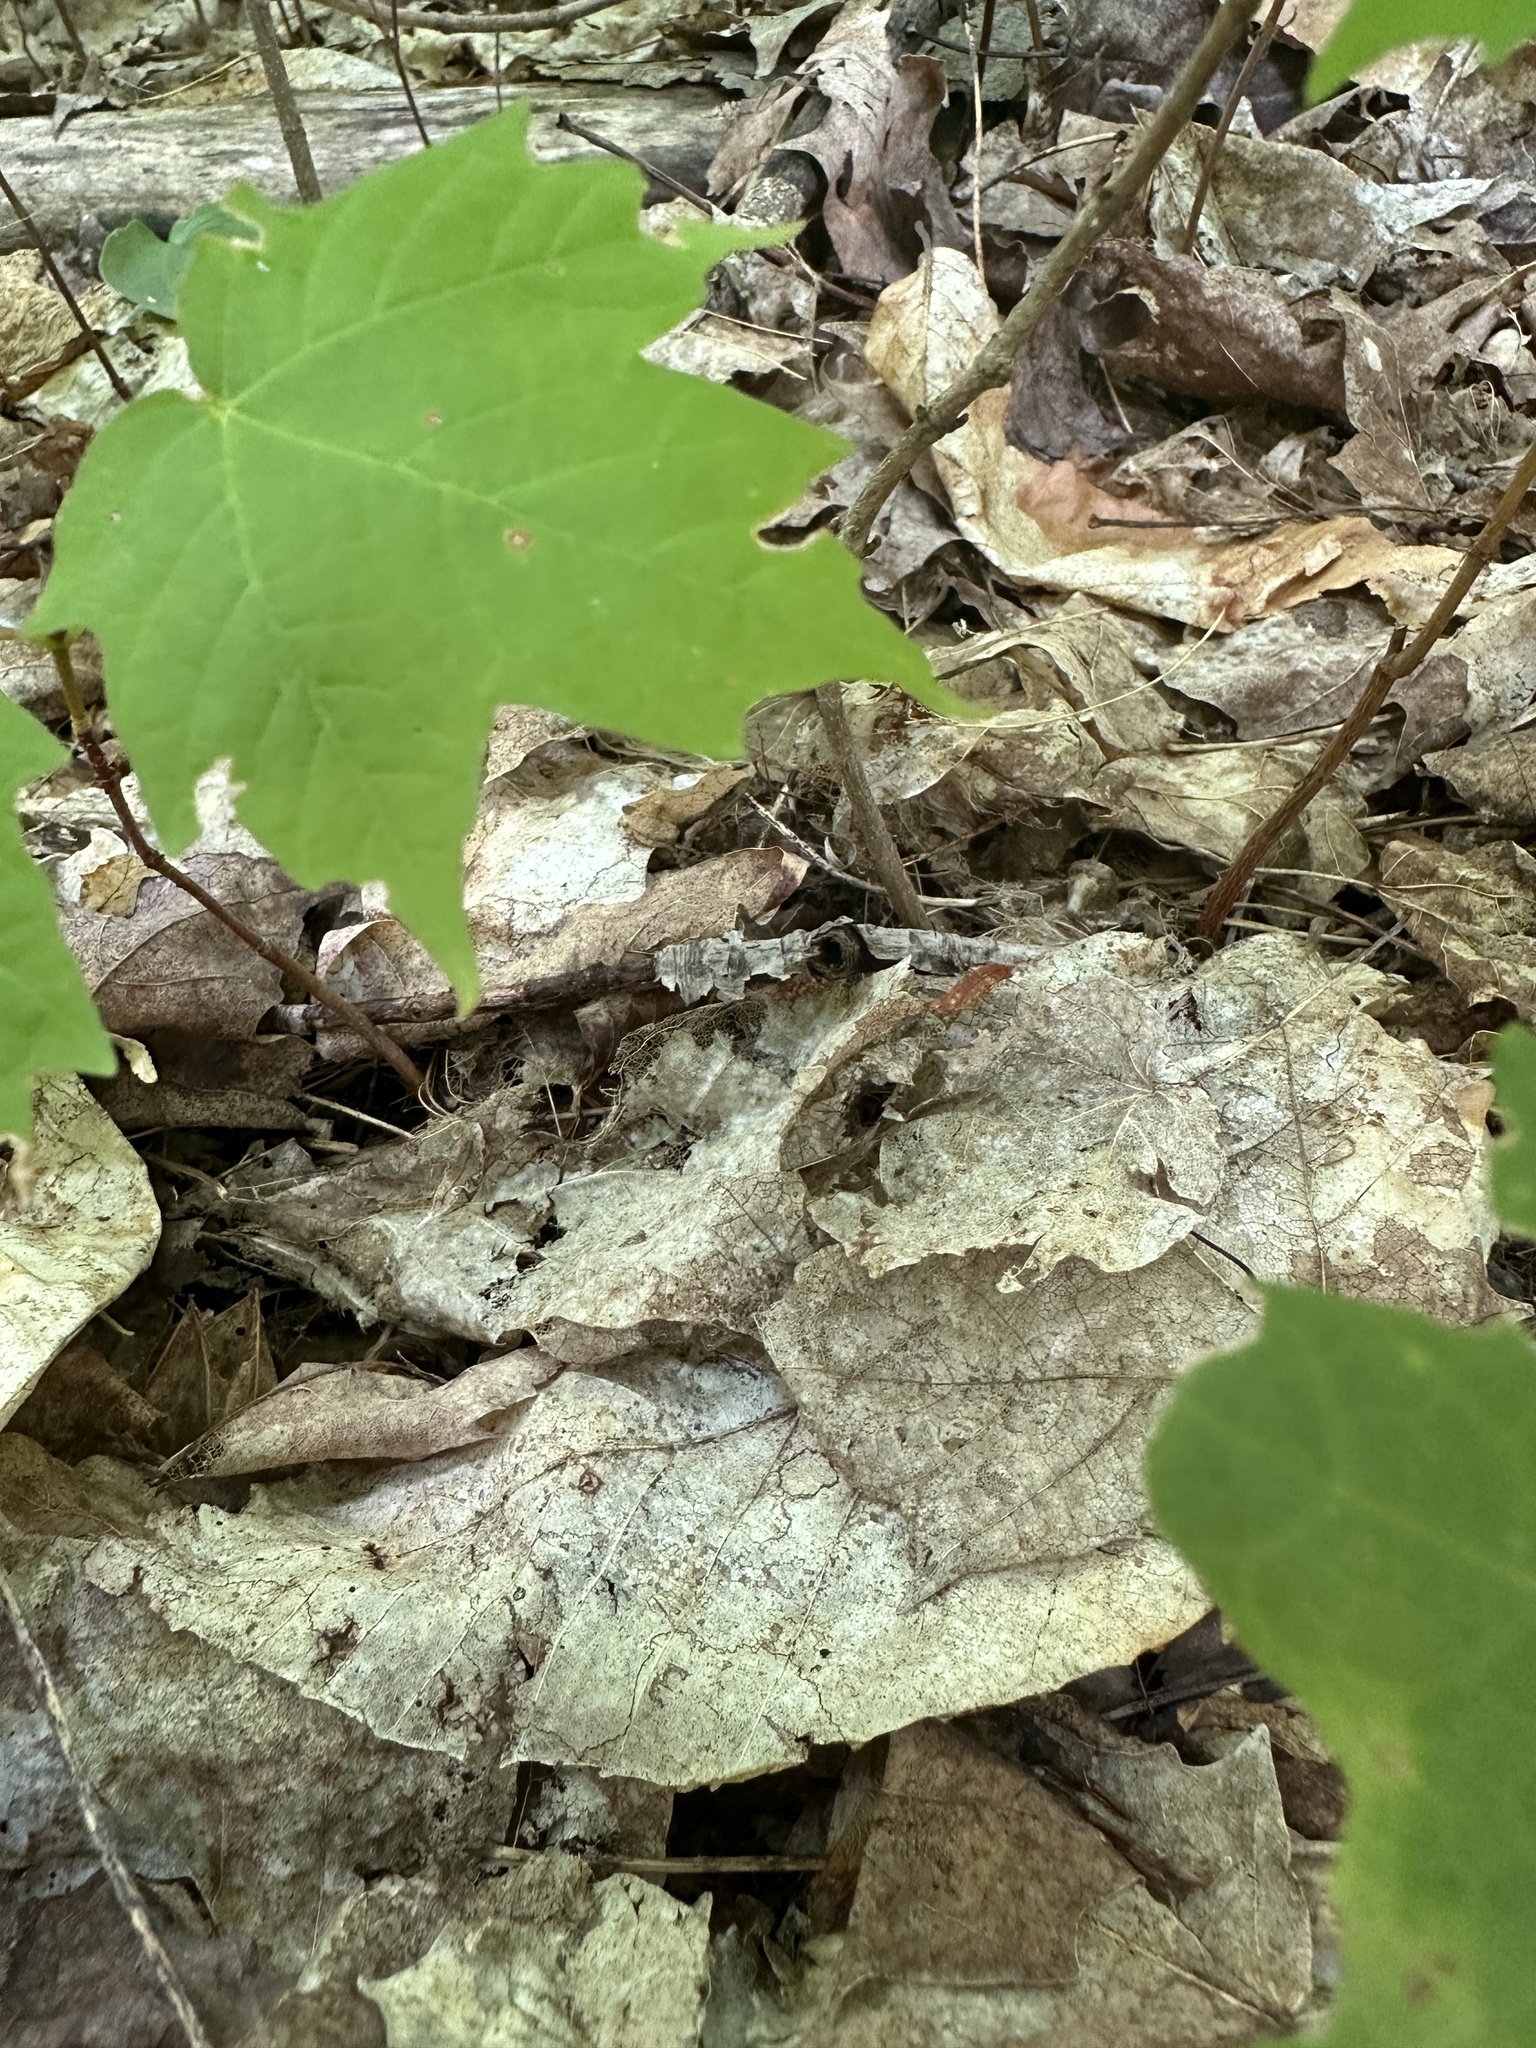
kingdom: Plantae
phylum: Tracheophyta
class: Magnoliopsida
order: Sapindales
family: Sapindaceae
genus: Acer
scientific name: Acer rubrum
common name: Red maple
